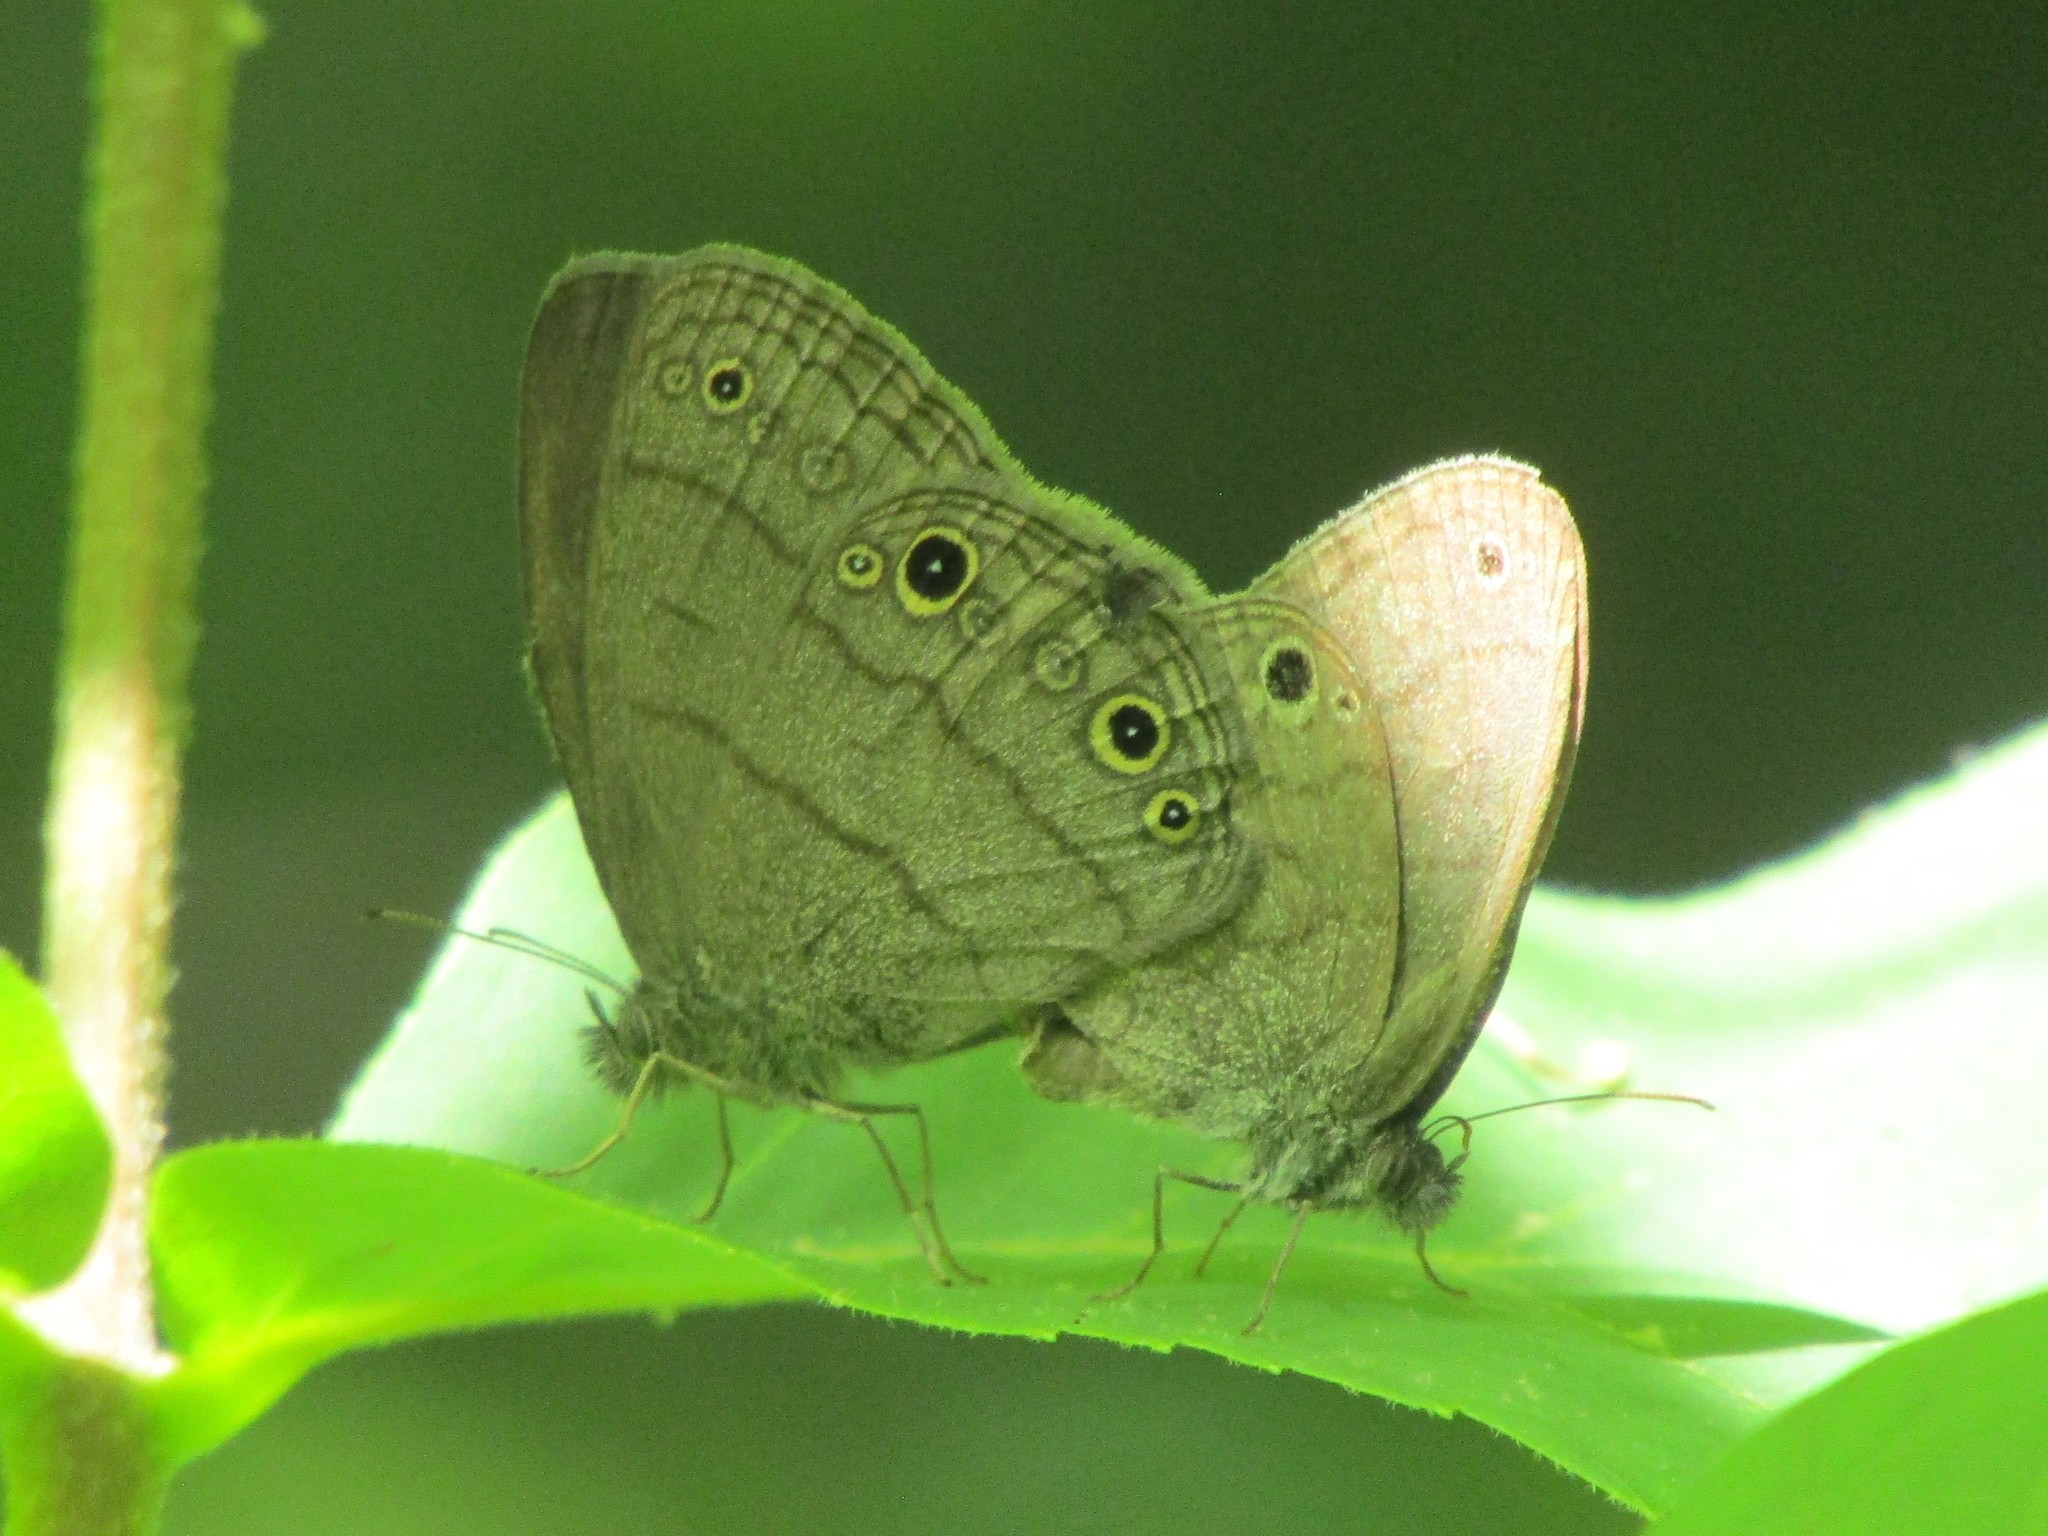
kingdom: Animalia
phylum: Arthropoda
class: Insecta
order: Lepidoptera
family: Nymphalidae
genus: Hermeuptychia
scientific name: Hermeuptychia hermes
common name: Hermes satyr
